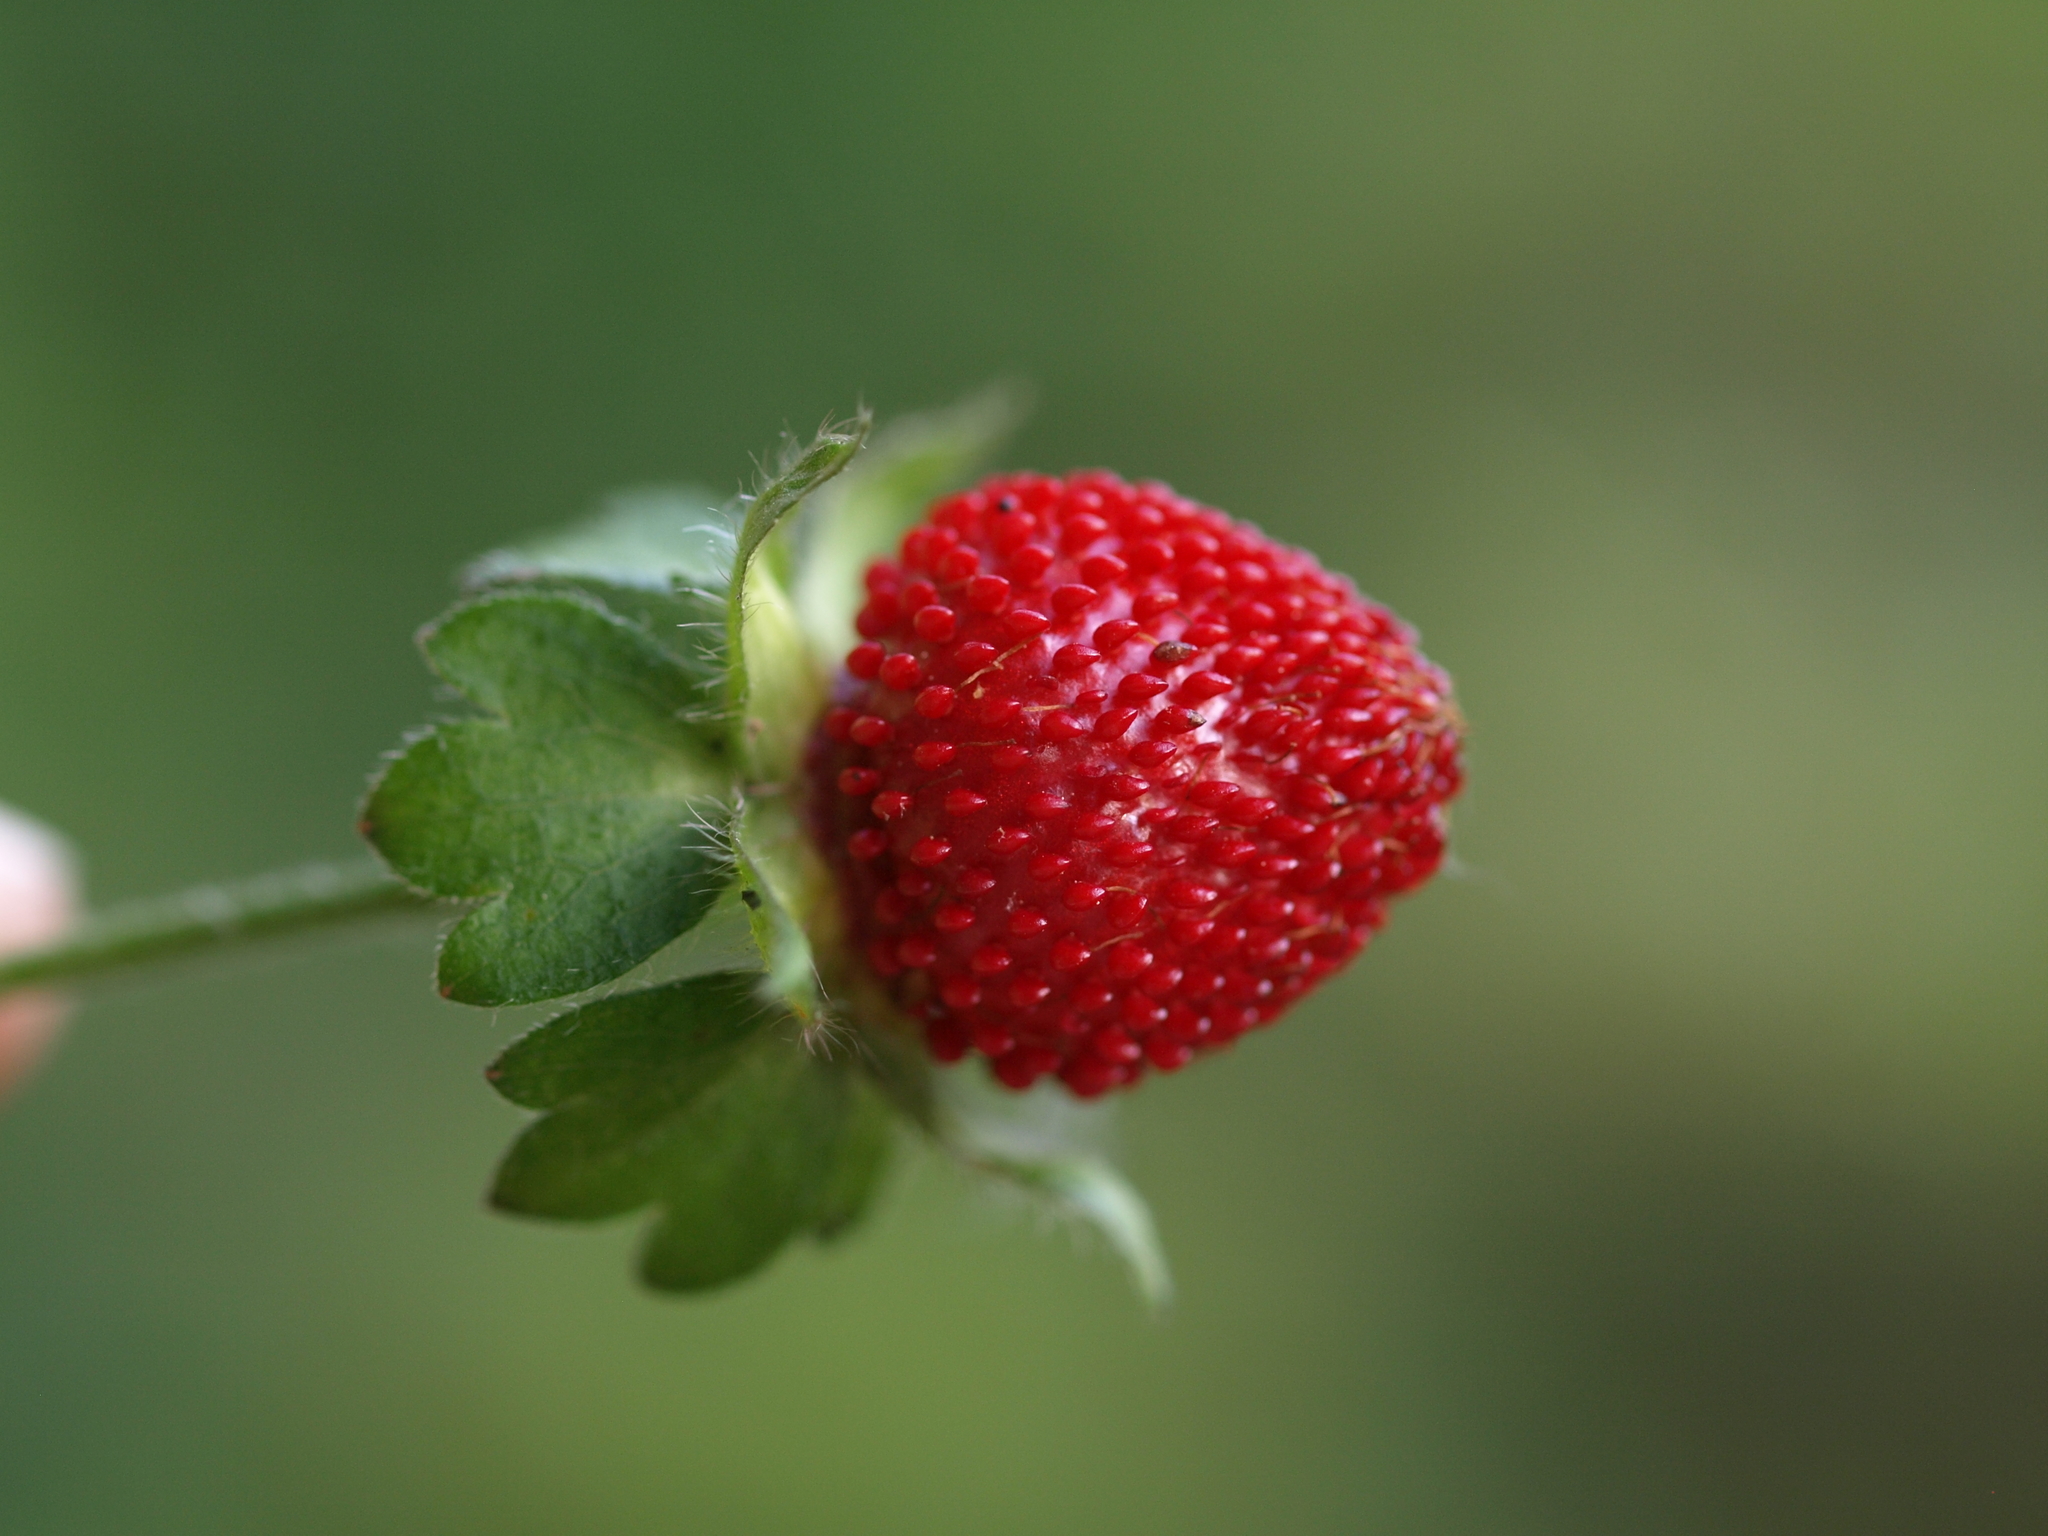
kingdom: Plantae
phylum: Tracheophyta
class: Magnoliopsida
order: Rosales
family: Rosaceae
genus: Potentilla
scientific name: Potentilla indica
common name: Yellow-flowered strawberry
